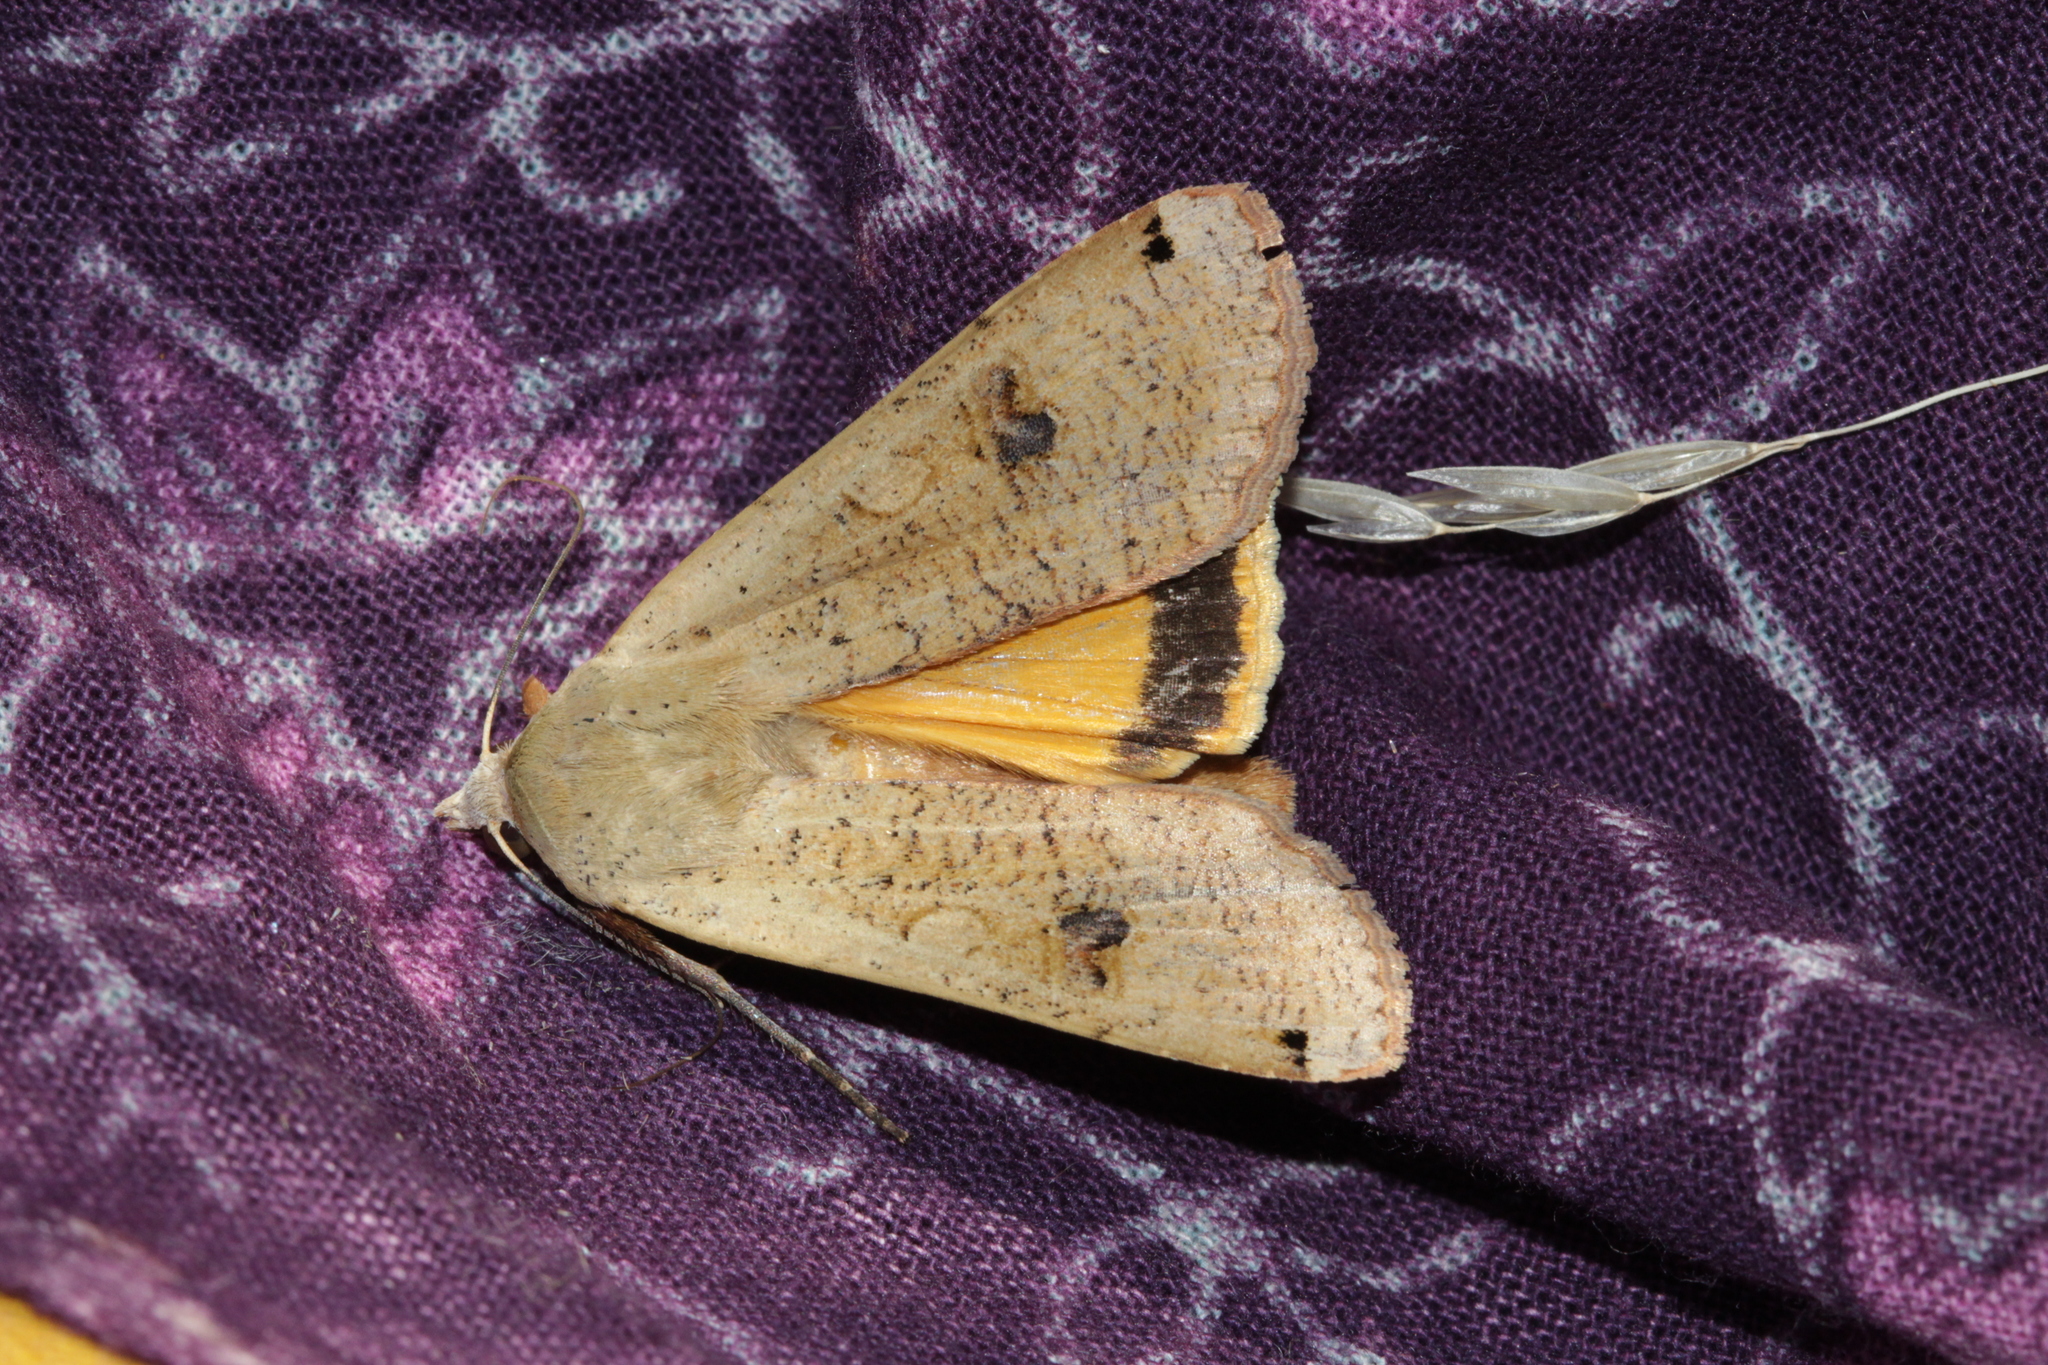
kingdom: Animalia
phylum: Arthropoda
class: Insecta
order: Lepidoptera
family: Noctuidae
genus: Noctua
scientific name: Noctua pronuba
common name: Large yellow underwing
